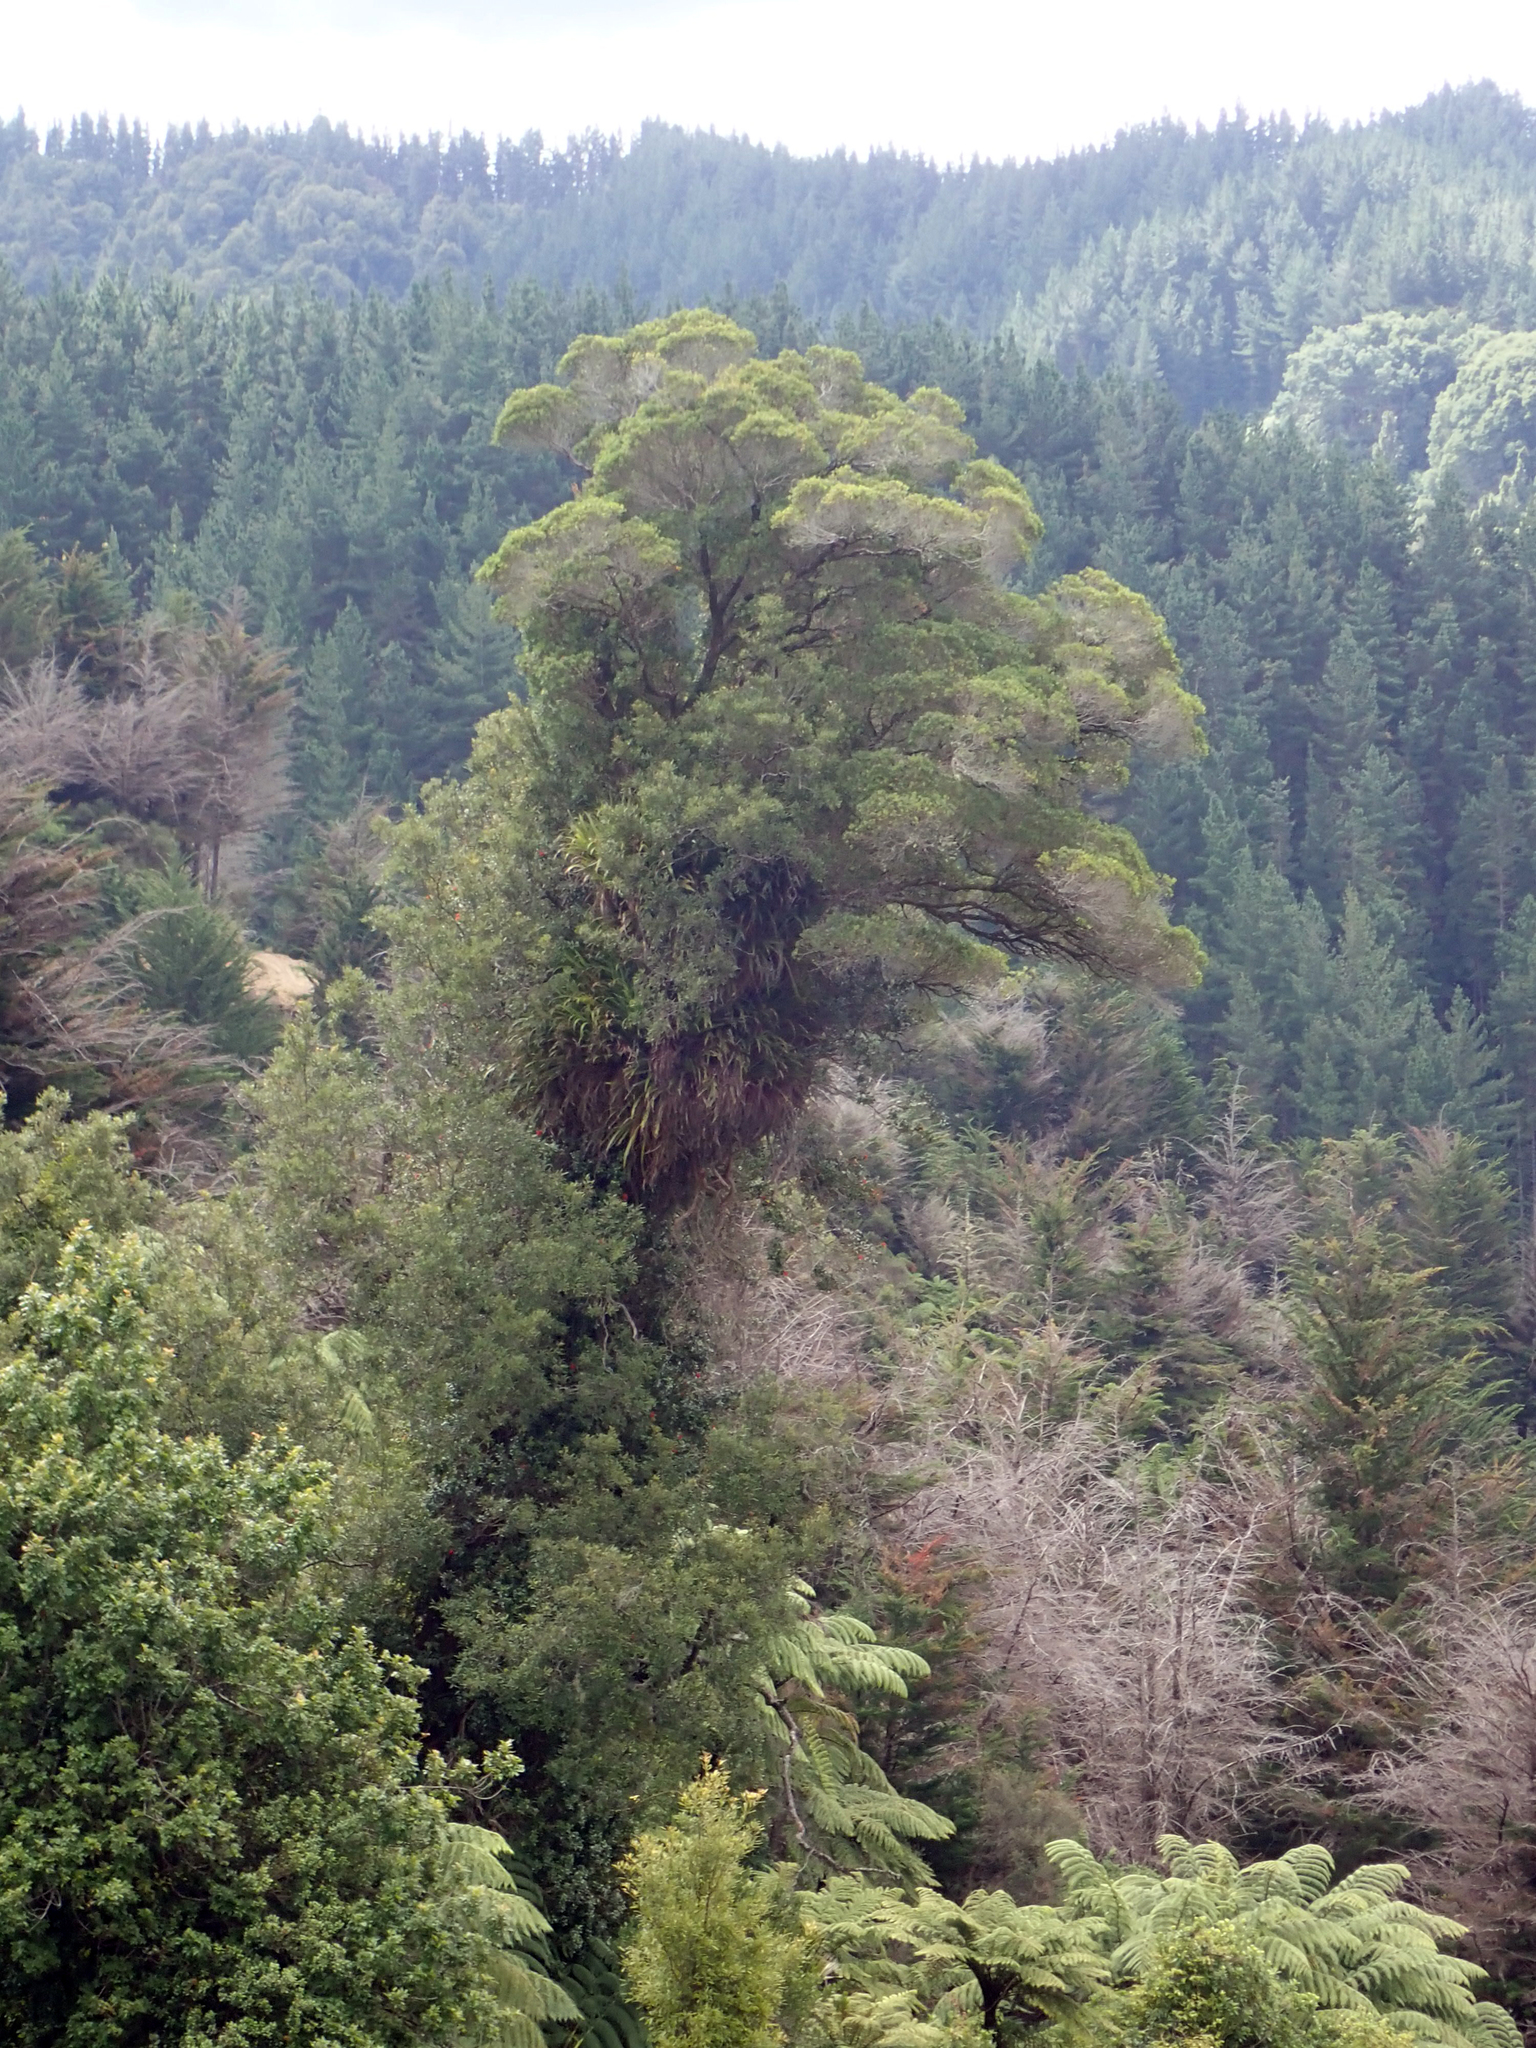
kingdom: Plantae
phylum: Tracheophyta
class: Magnoliopsida
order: Myrtales
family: Myrtaceae
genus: Metrosideros
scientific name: Metrosideros robusta
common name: Northern rata
